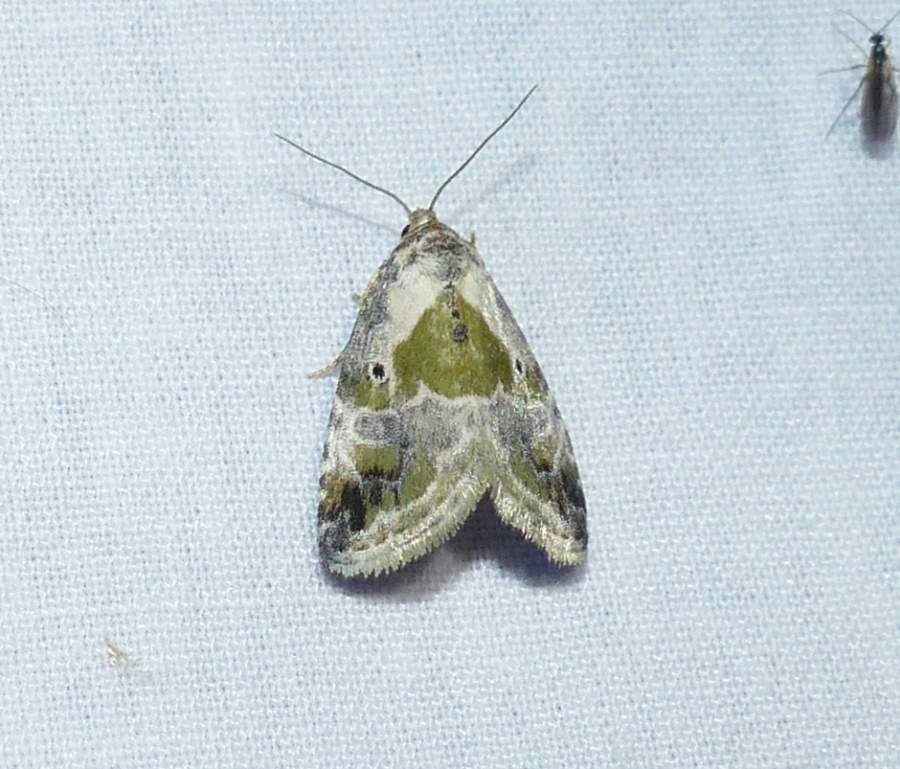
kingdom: Animalia
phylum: Arthropoda
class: Insecta
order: Lepidoptera
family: Noctuidae
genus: Maliattha
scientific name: Maliattha synochitis
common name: Black-dotted glyph
